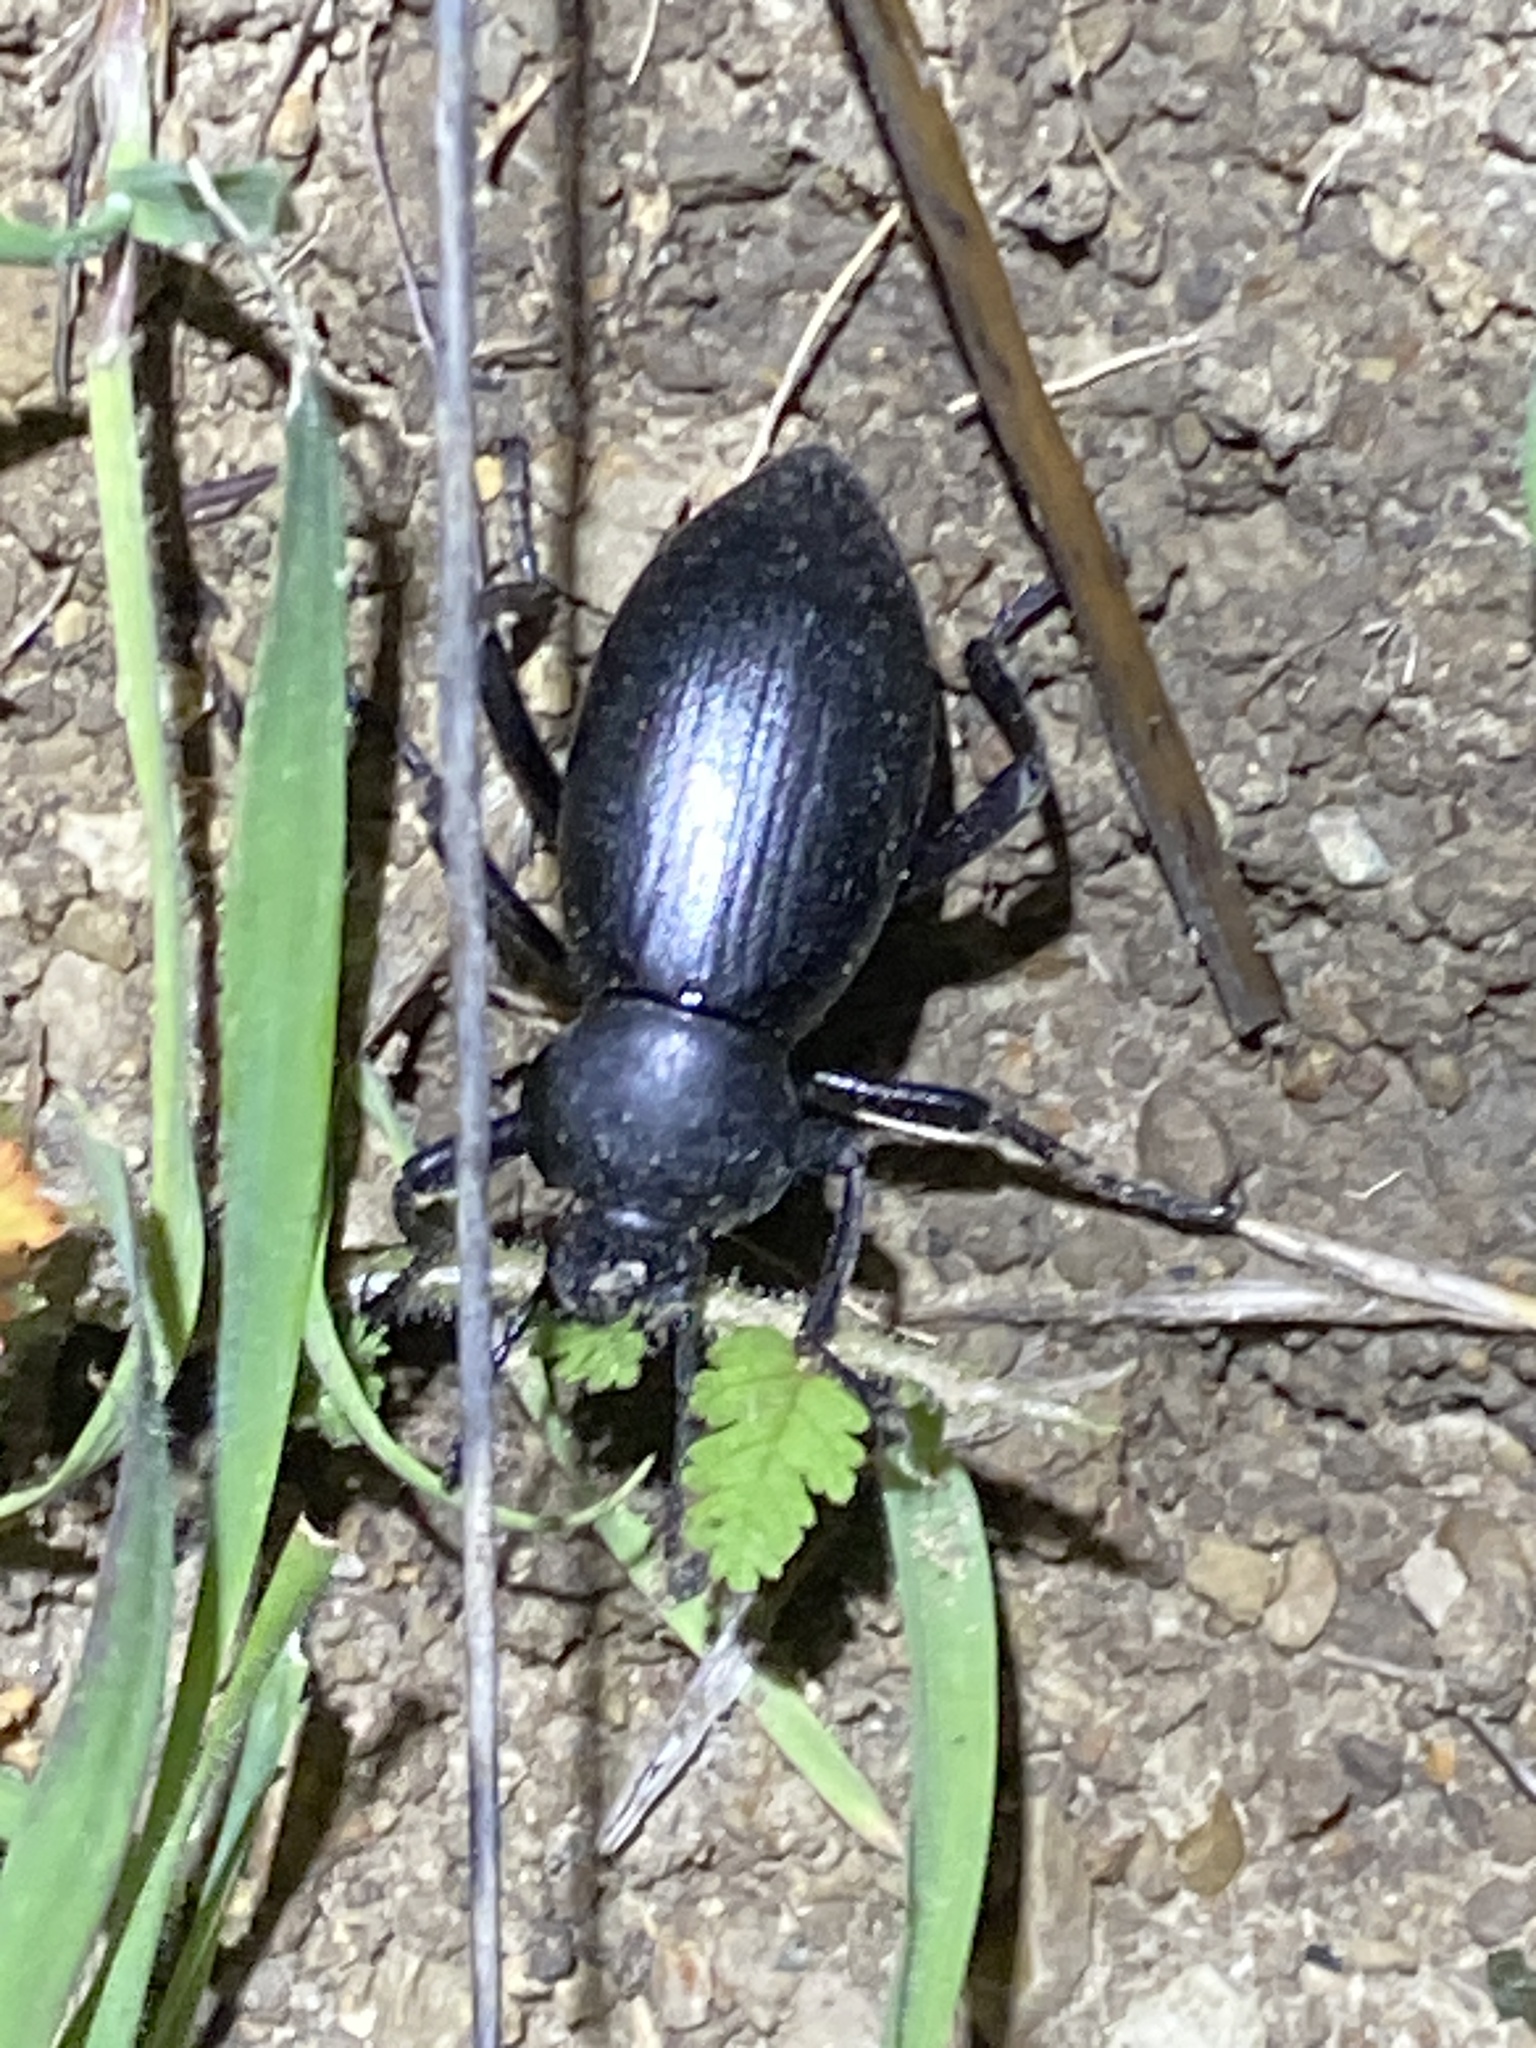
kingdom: Animalia
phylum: Arthropoda
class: Insecta
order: Coleoptera
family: Tenebrionidae
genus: Eleodes
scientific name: Eleodes dentipes
